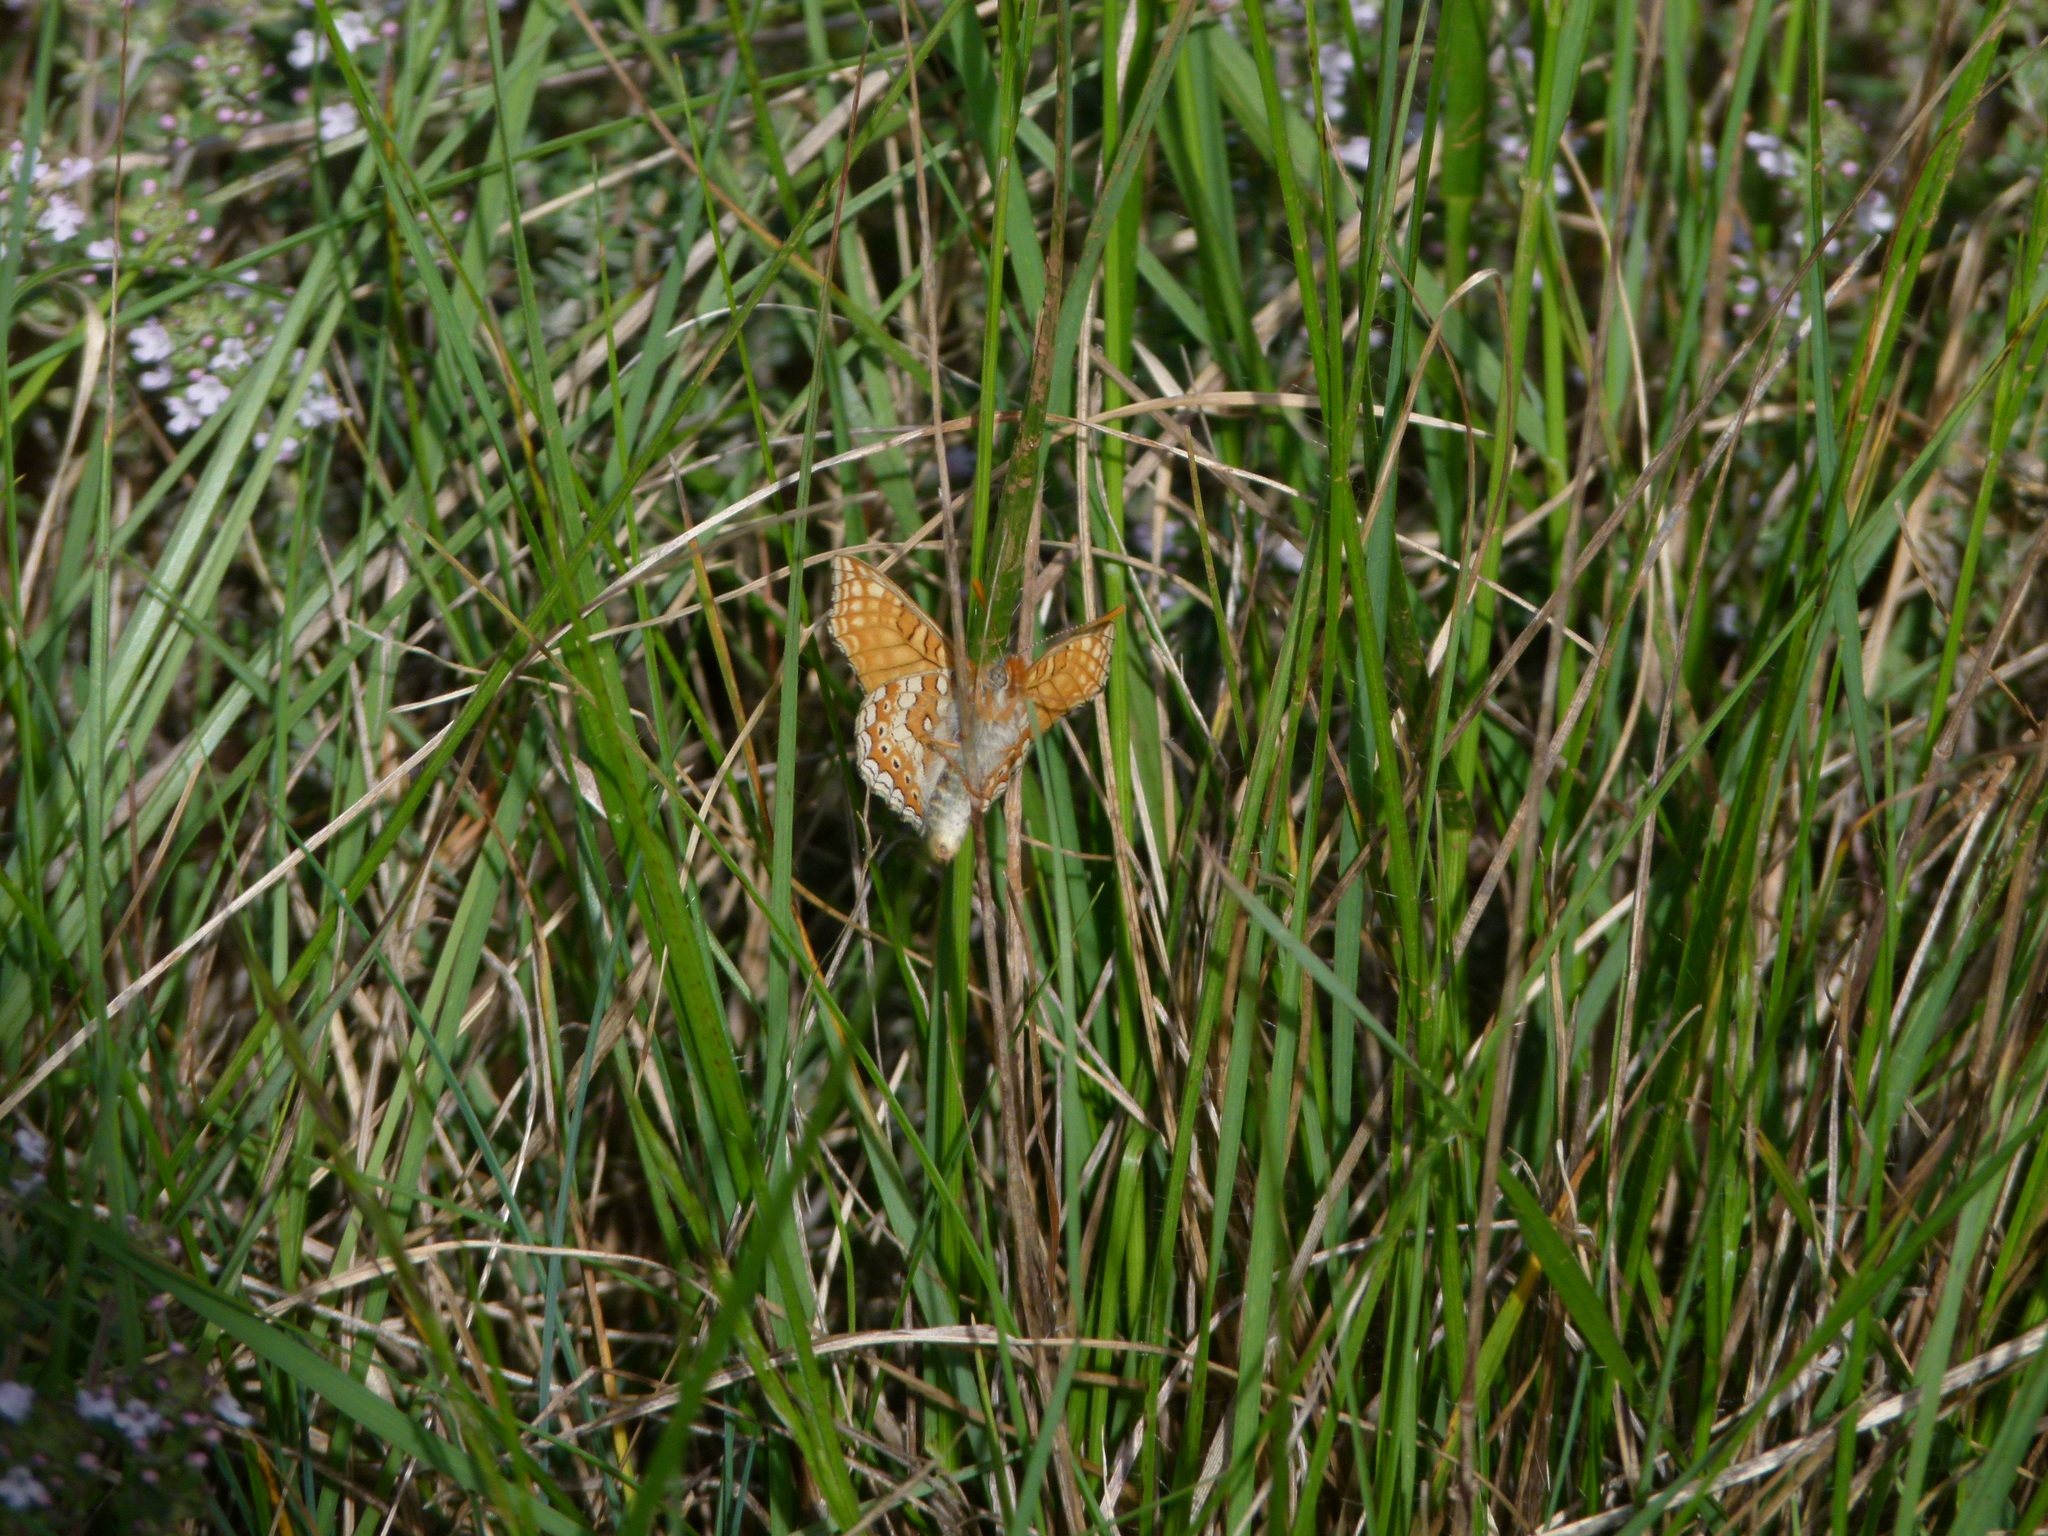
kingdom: Animalia
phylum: Arthropoda
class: Insecta
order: Lepidoptera
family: Nymphalidae
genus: Euphydryas
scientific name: Euphydryas aurinia
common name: Marsh fritillary
